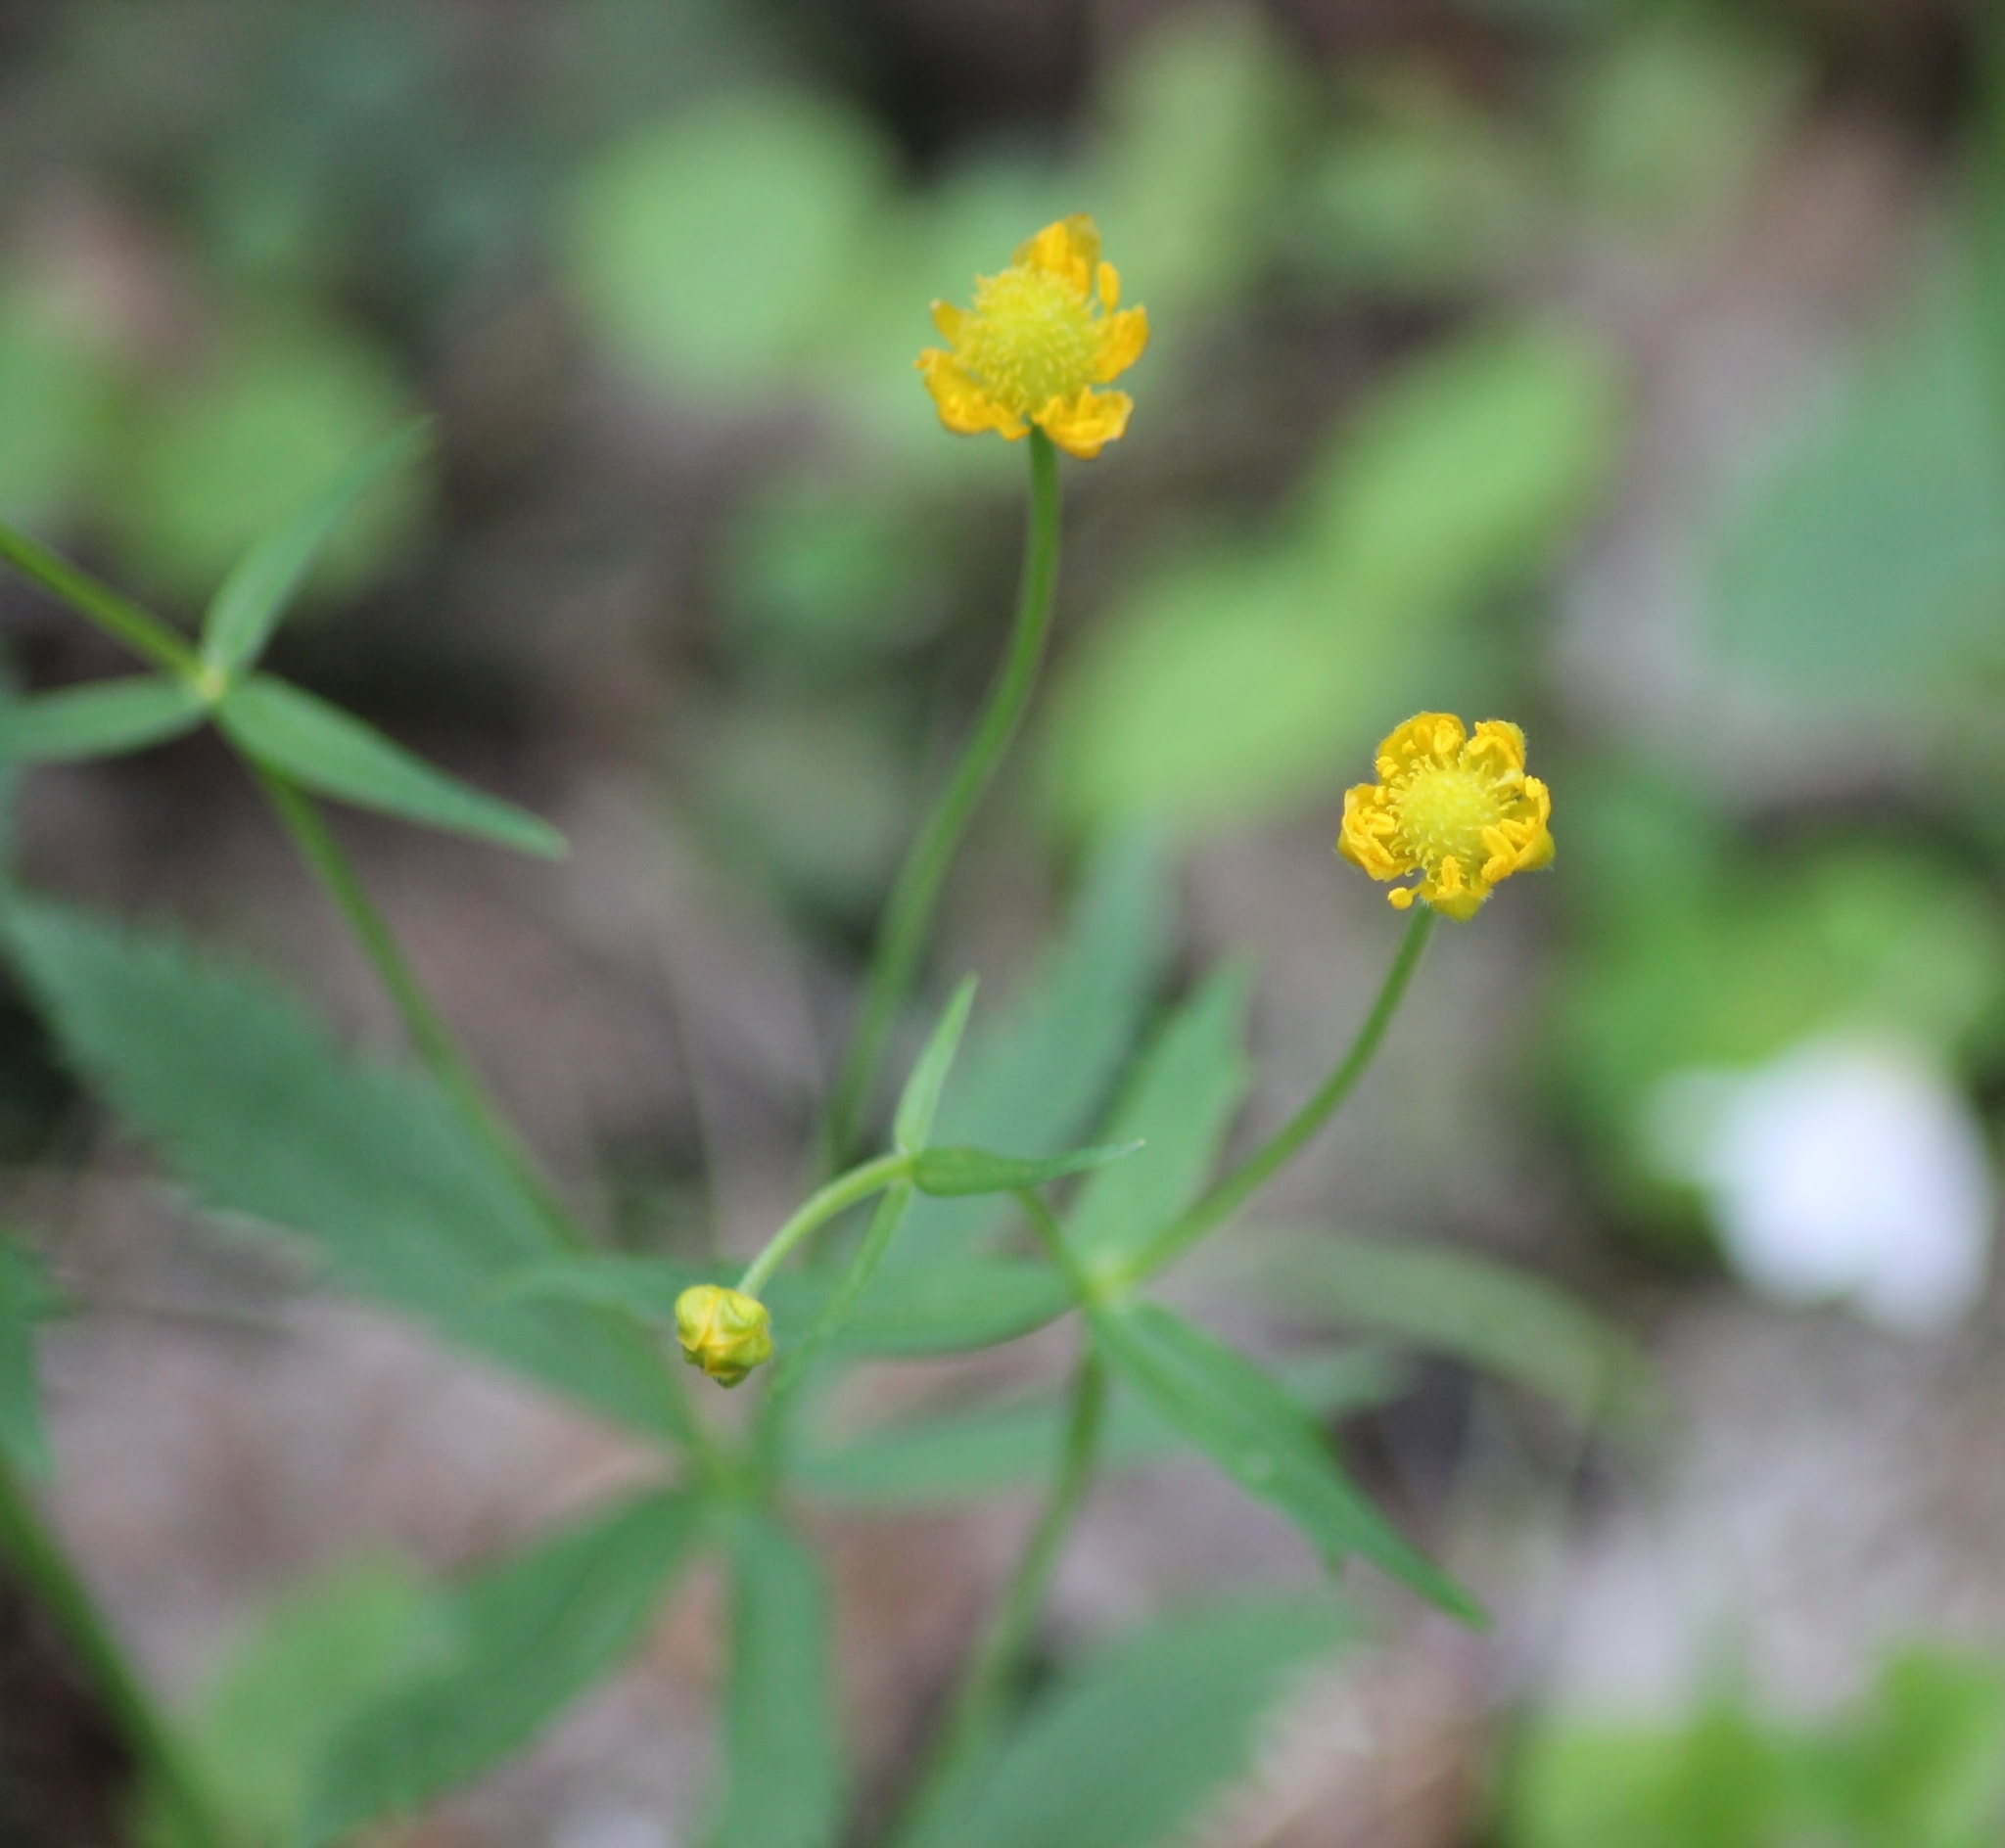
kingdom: Plantae
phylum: Tracheophyta
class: Magnoliopsida
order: Ranunculales
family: Ranunculaceae
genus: Ranunculus
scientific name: Ranunculus cassubicus
